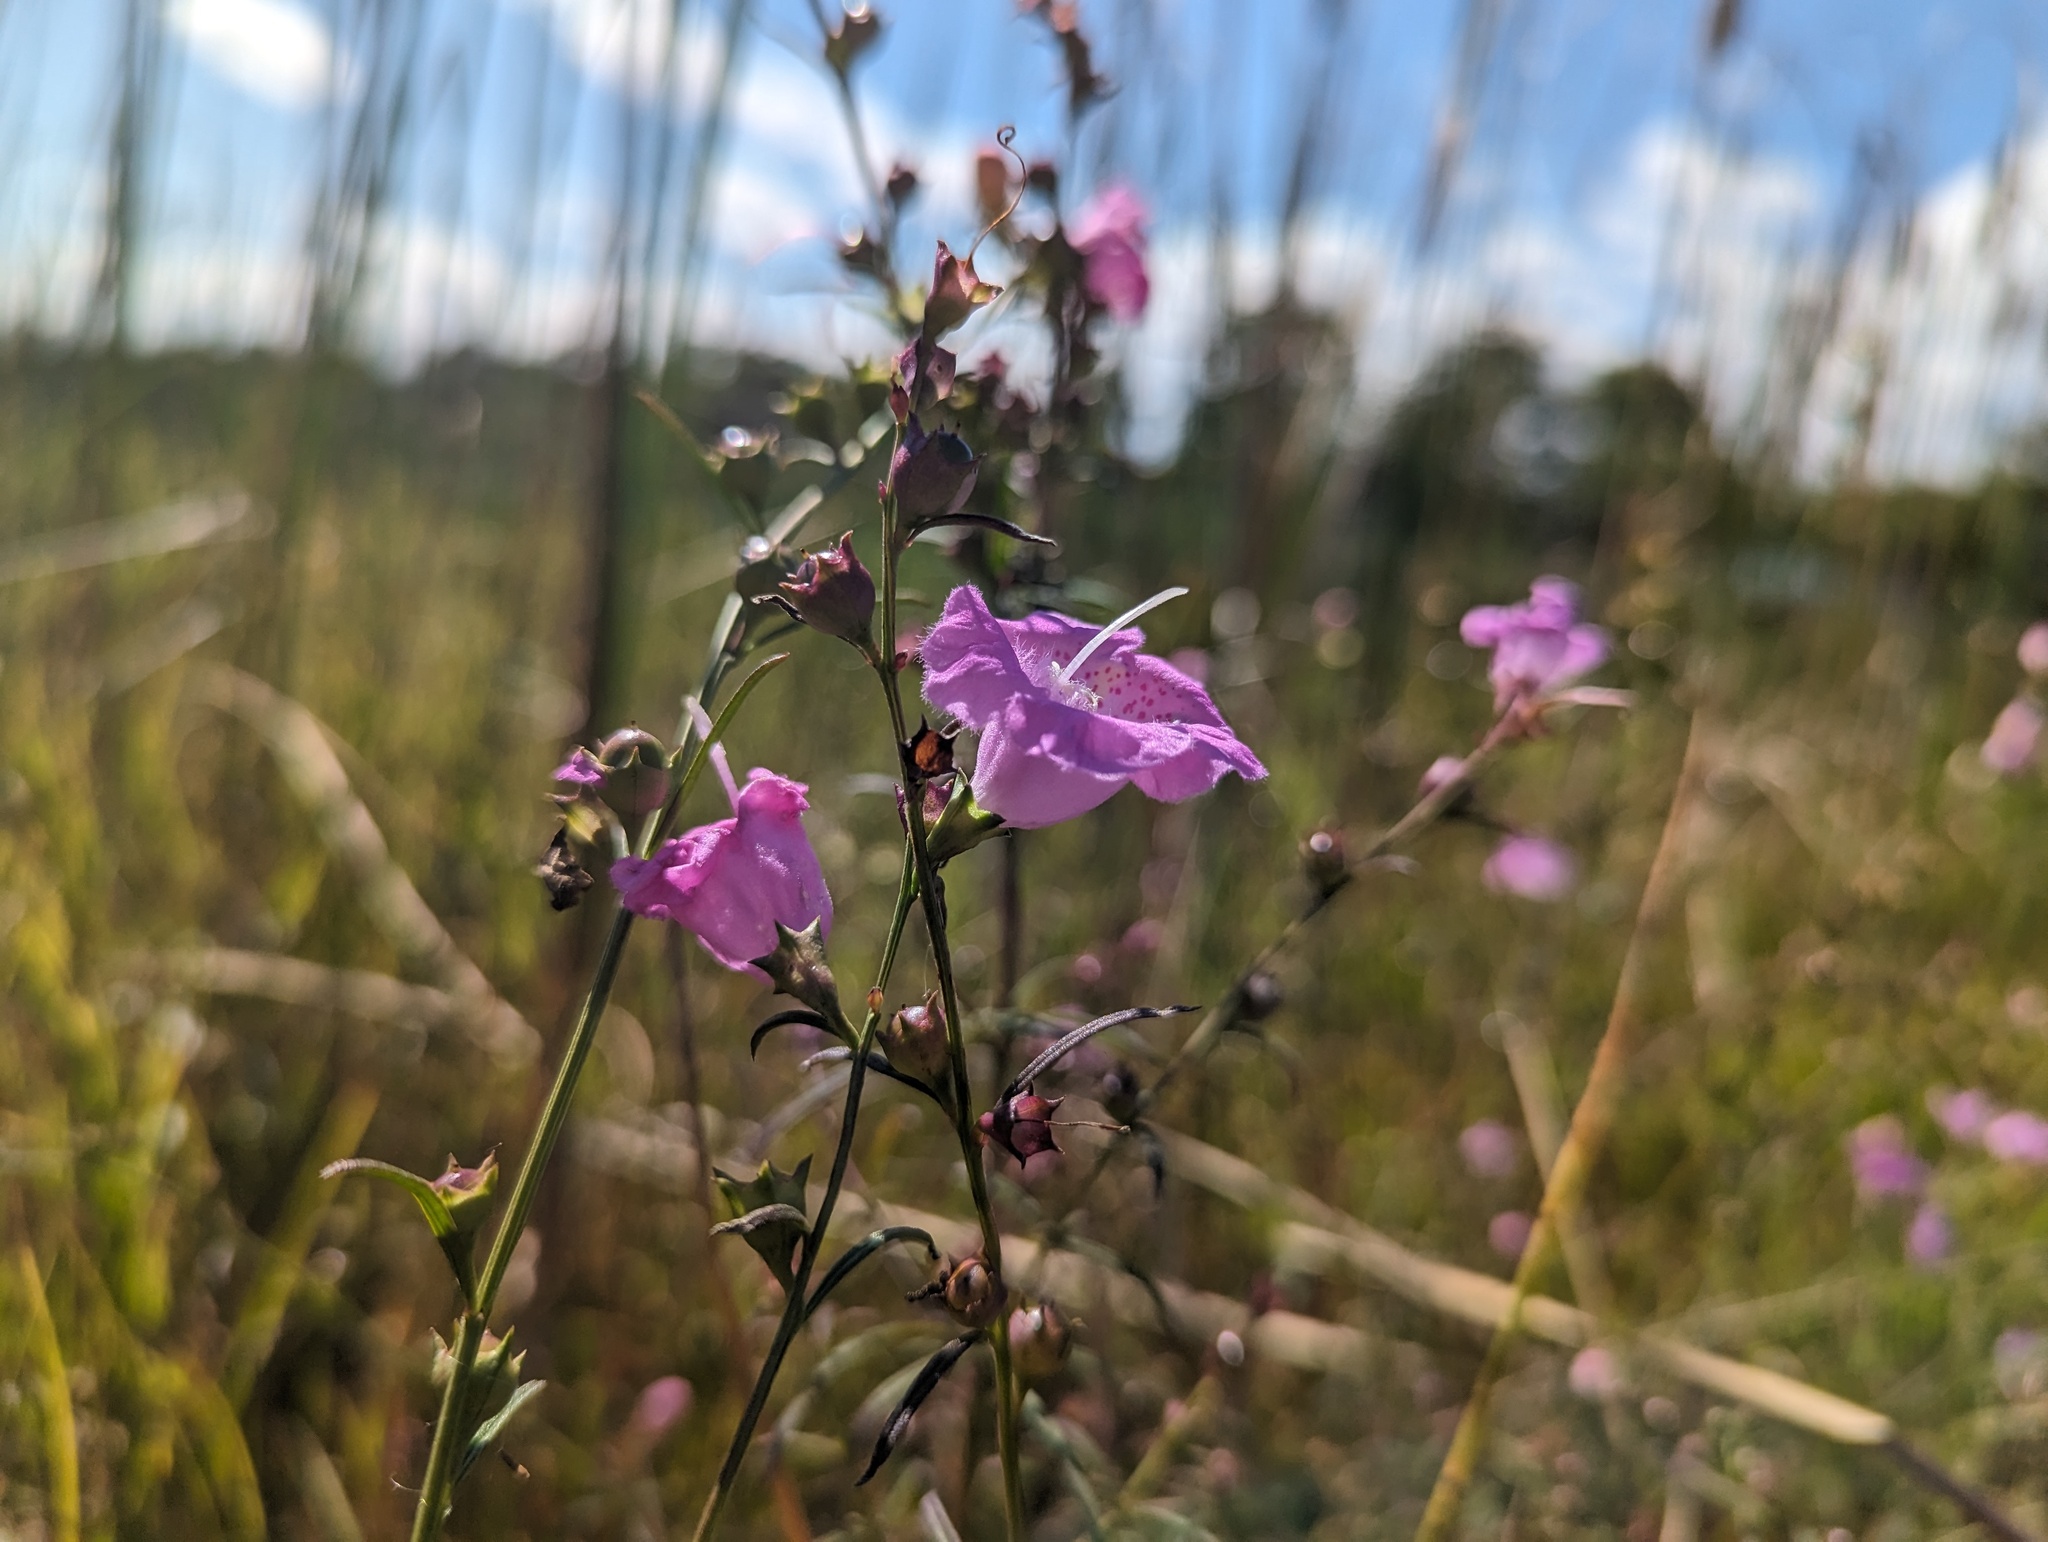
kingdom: Plantae
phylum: Tracheophyta
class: Magnoliopsida
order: Lamiales
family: Orobanchaceae
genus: Agalinis
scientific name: Agalinis purpurea
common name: Purple false foxglove
